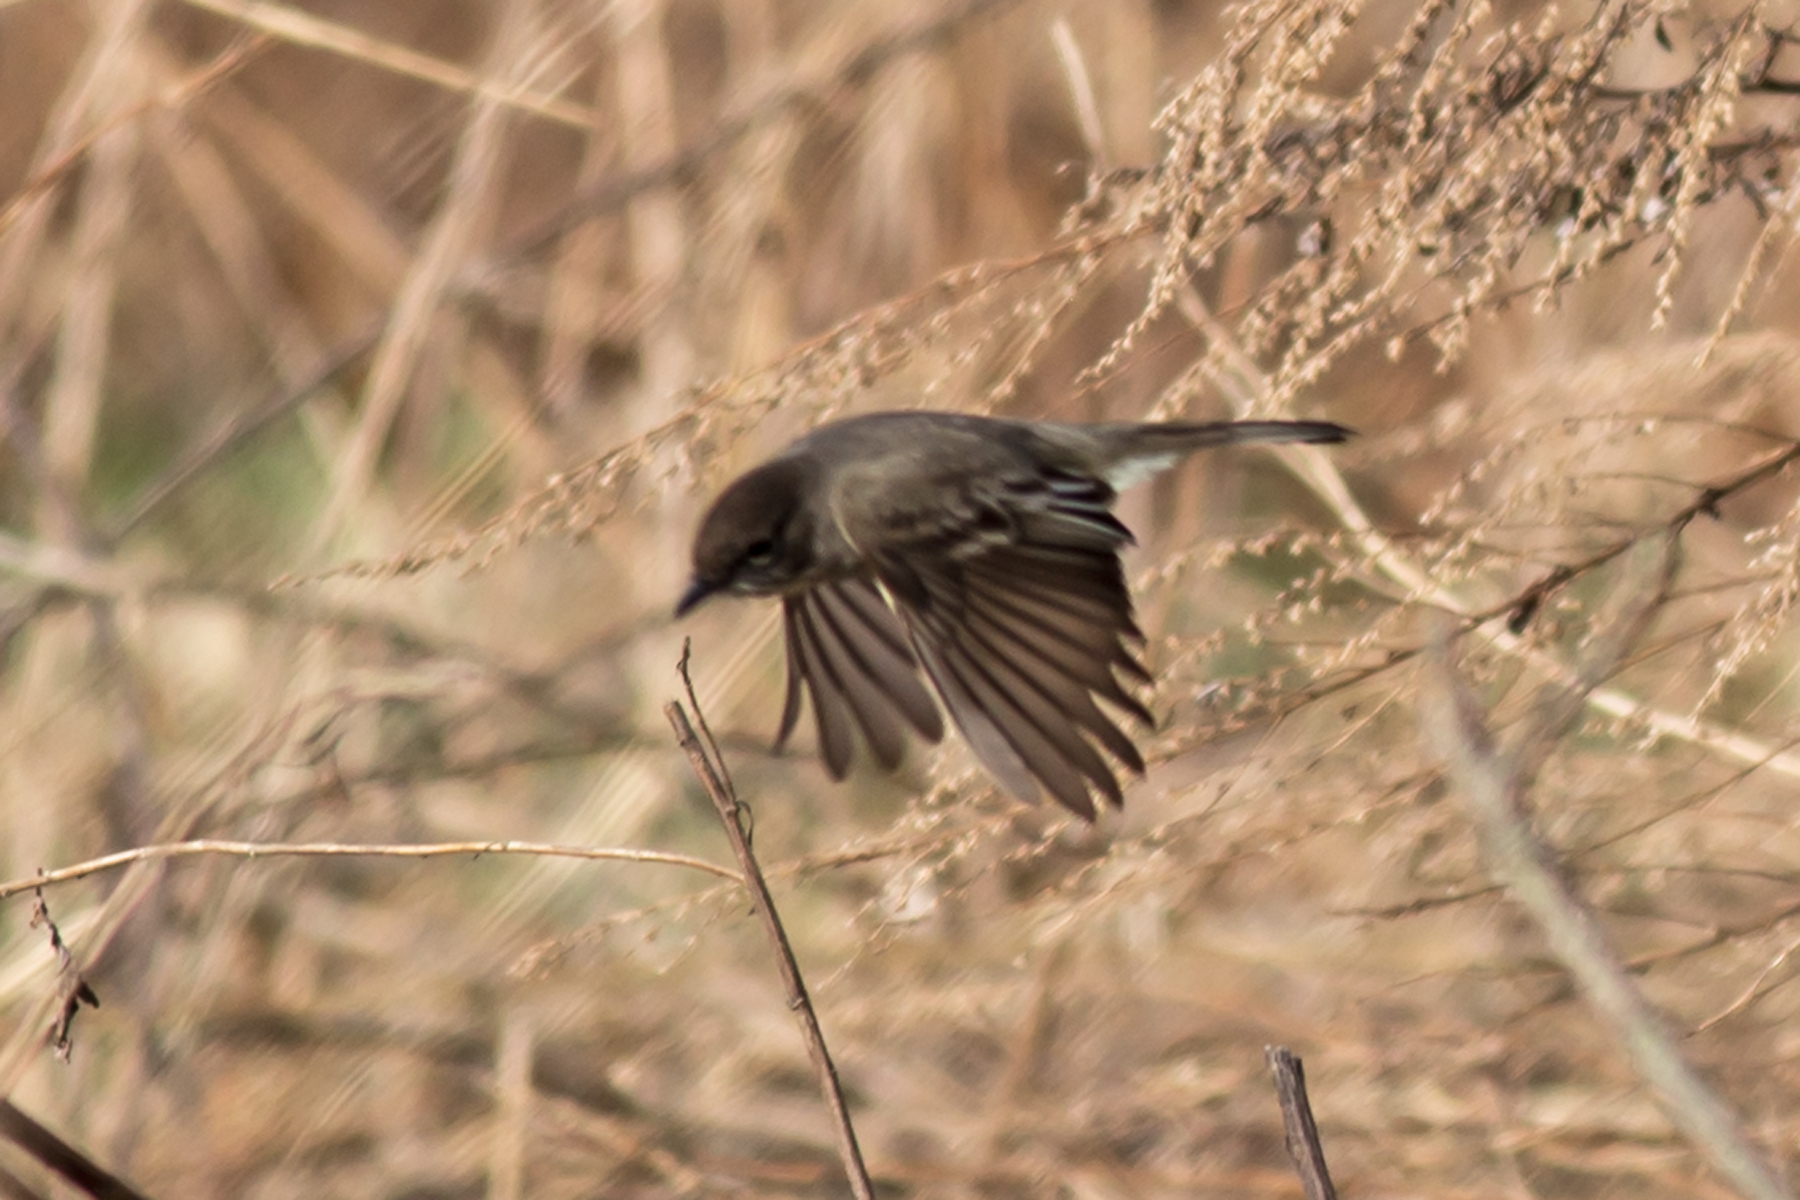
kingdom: Animalia
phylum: Chordata
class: Aves
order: Passeriformes
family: Tyrannidae
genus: Sayornis
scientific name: Sayornis phoebe
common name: Eastern phoebe
